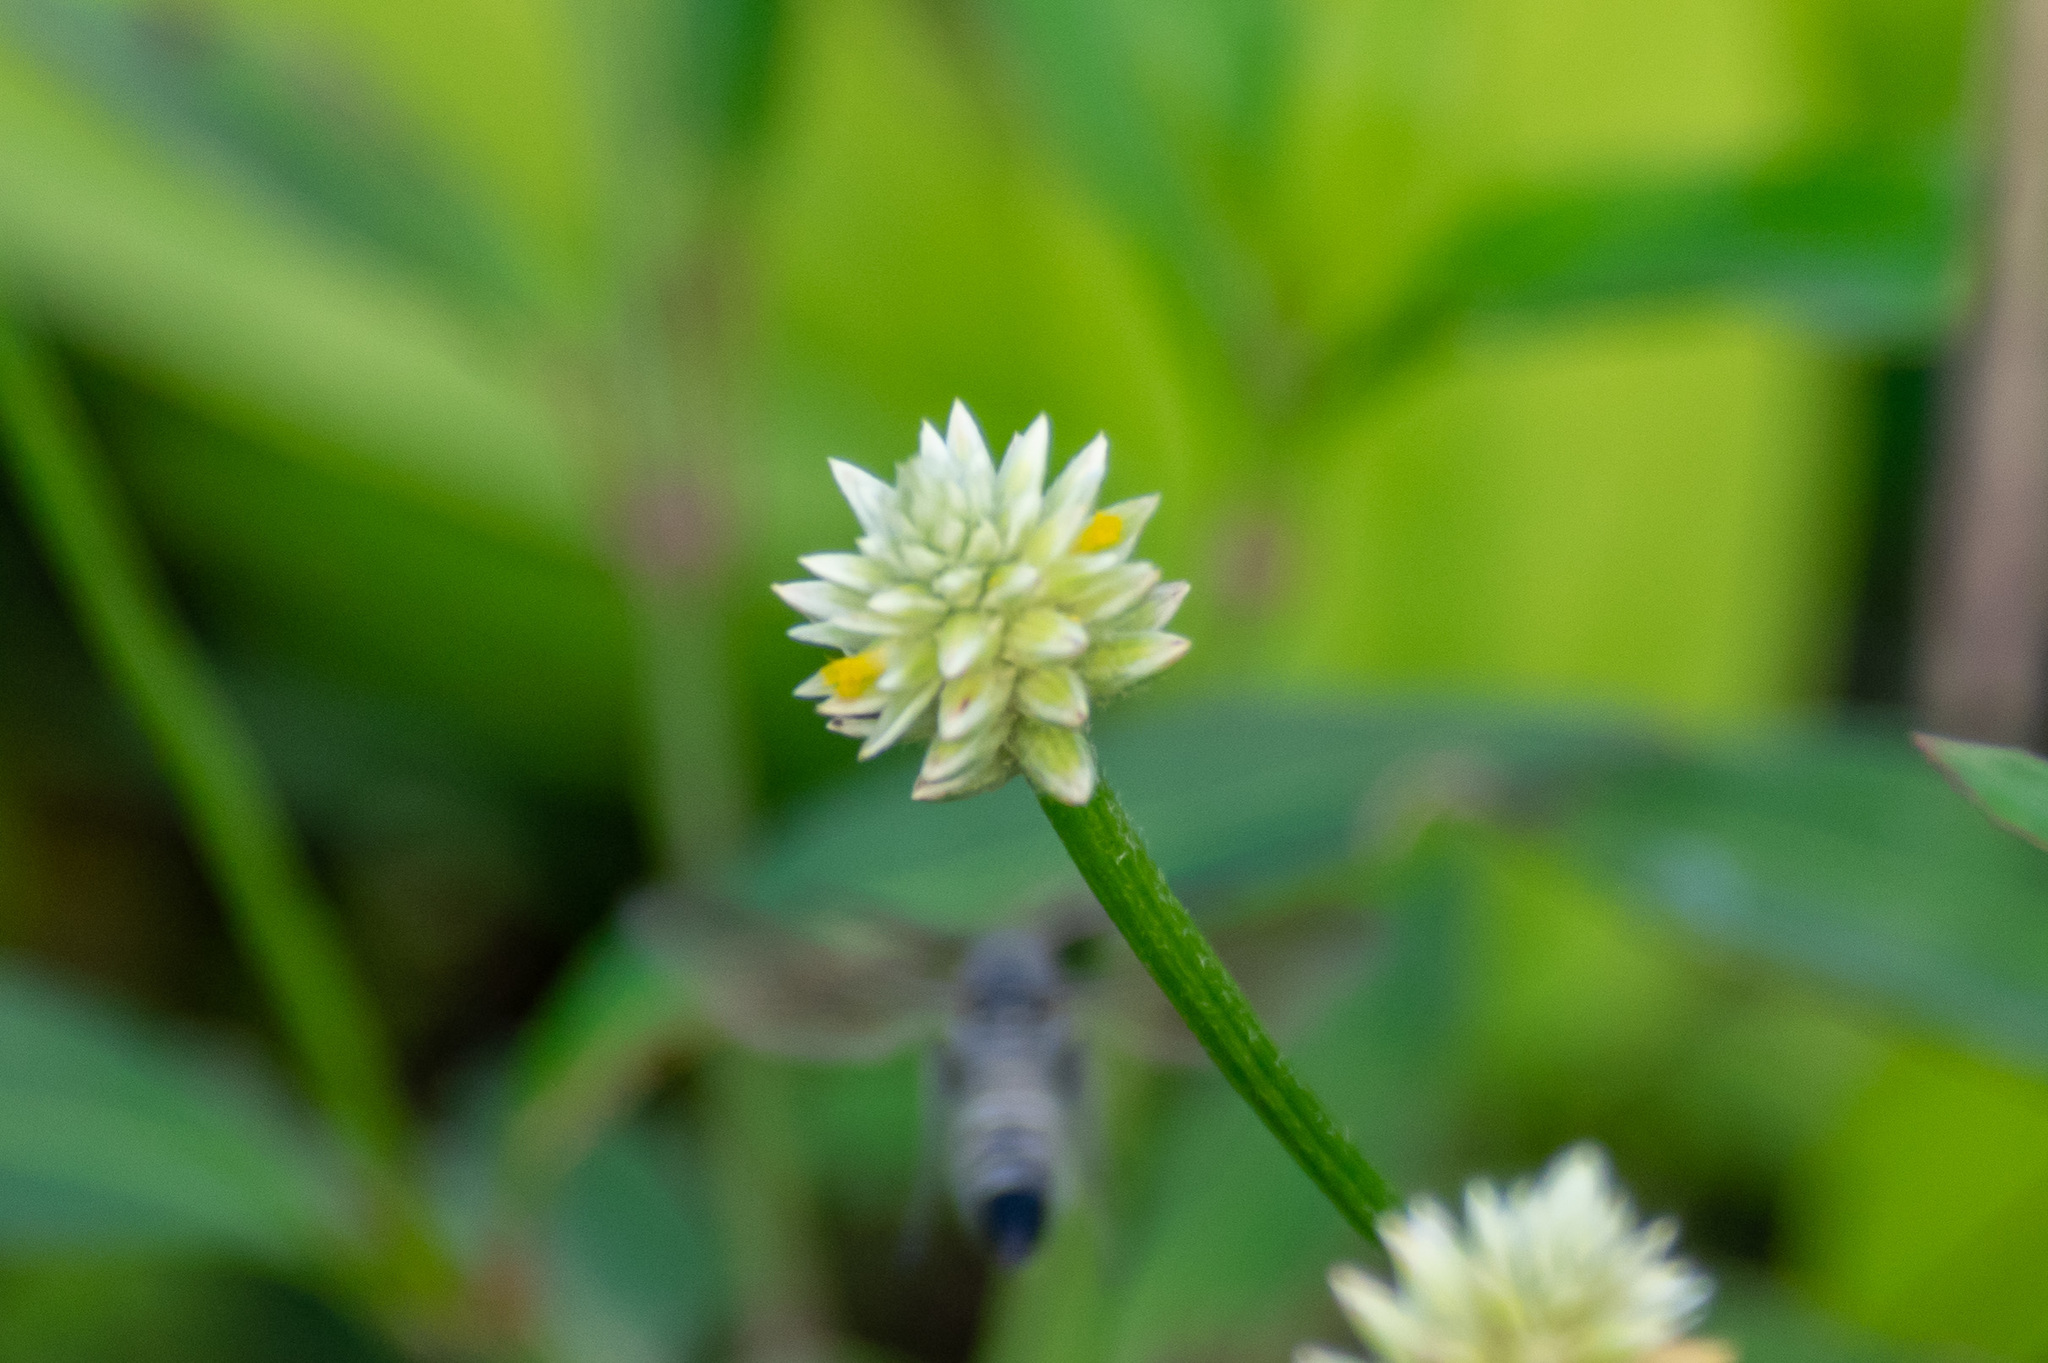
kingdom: Plantae
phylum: Tracheophyta
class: Magnoliopsida
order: Caryophyllales
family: Amaranthaceae
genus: Alternanthera
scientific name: Alternanthera philoxeroides
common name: Alligatorweed
